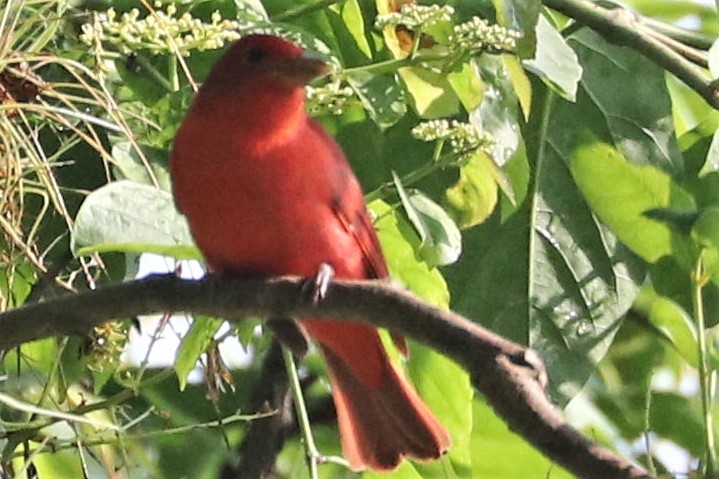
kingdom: Animalia
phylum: Chordata
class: Aves
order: Passeriformes
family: Cardinalidae
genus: Piranga
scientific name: Piranga rubra
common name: Summer tanager
